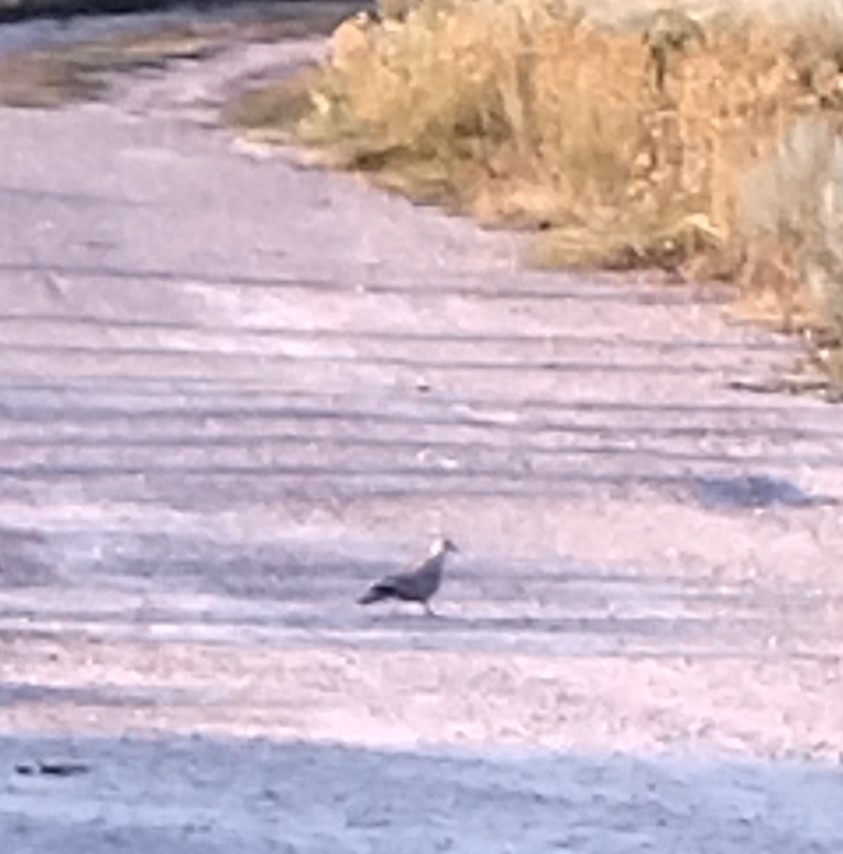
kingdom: Animalia
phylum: Chordata
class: Aves
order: Columbiformes
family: Columbidae
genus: Streptopelia
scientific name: Streptopelia decaocto
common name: Eurasian collared dove
